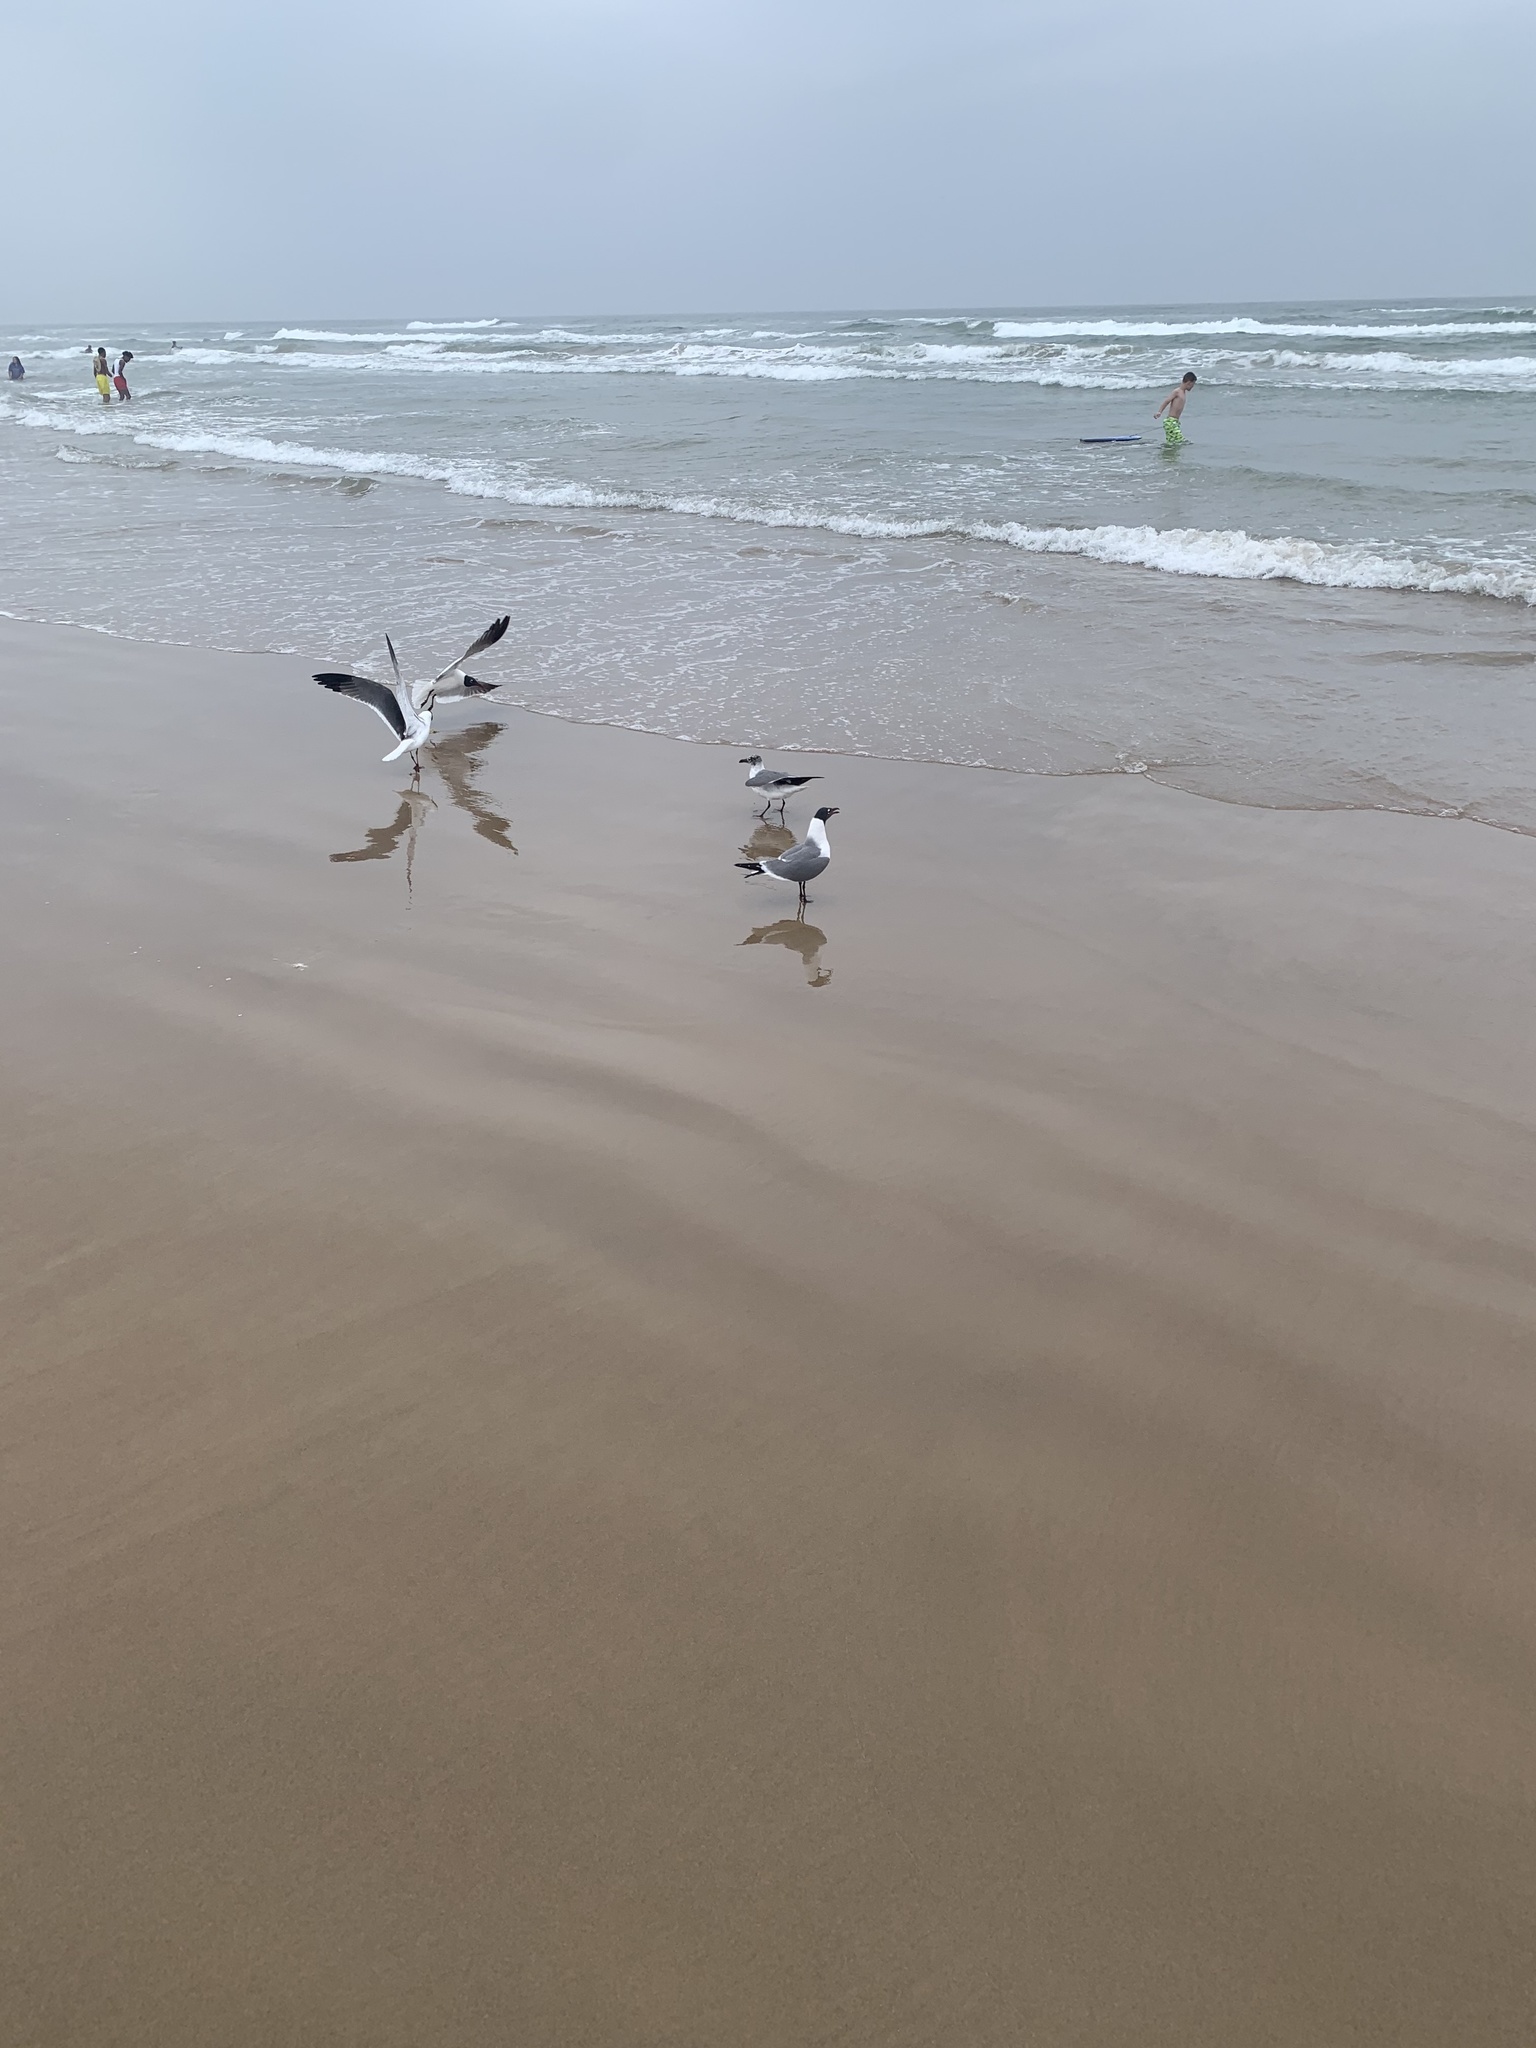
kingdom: Animalia
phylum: Chordata
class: Aves
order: Charadriiformes
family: Laridae
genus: Leucophaeus
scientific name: Leucophaeus atricilla
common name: Laughing gull
